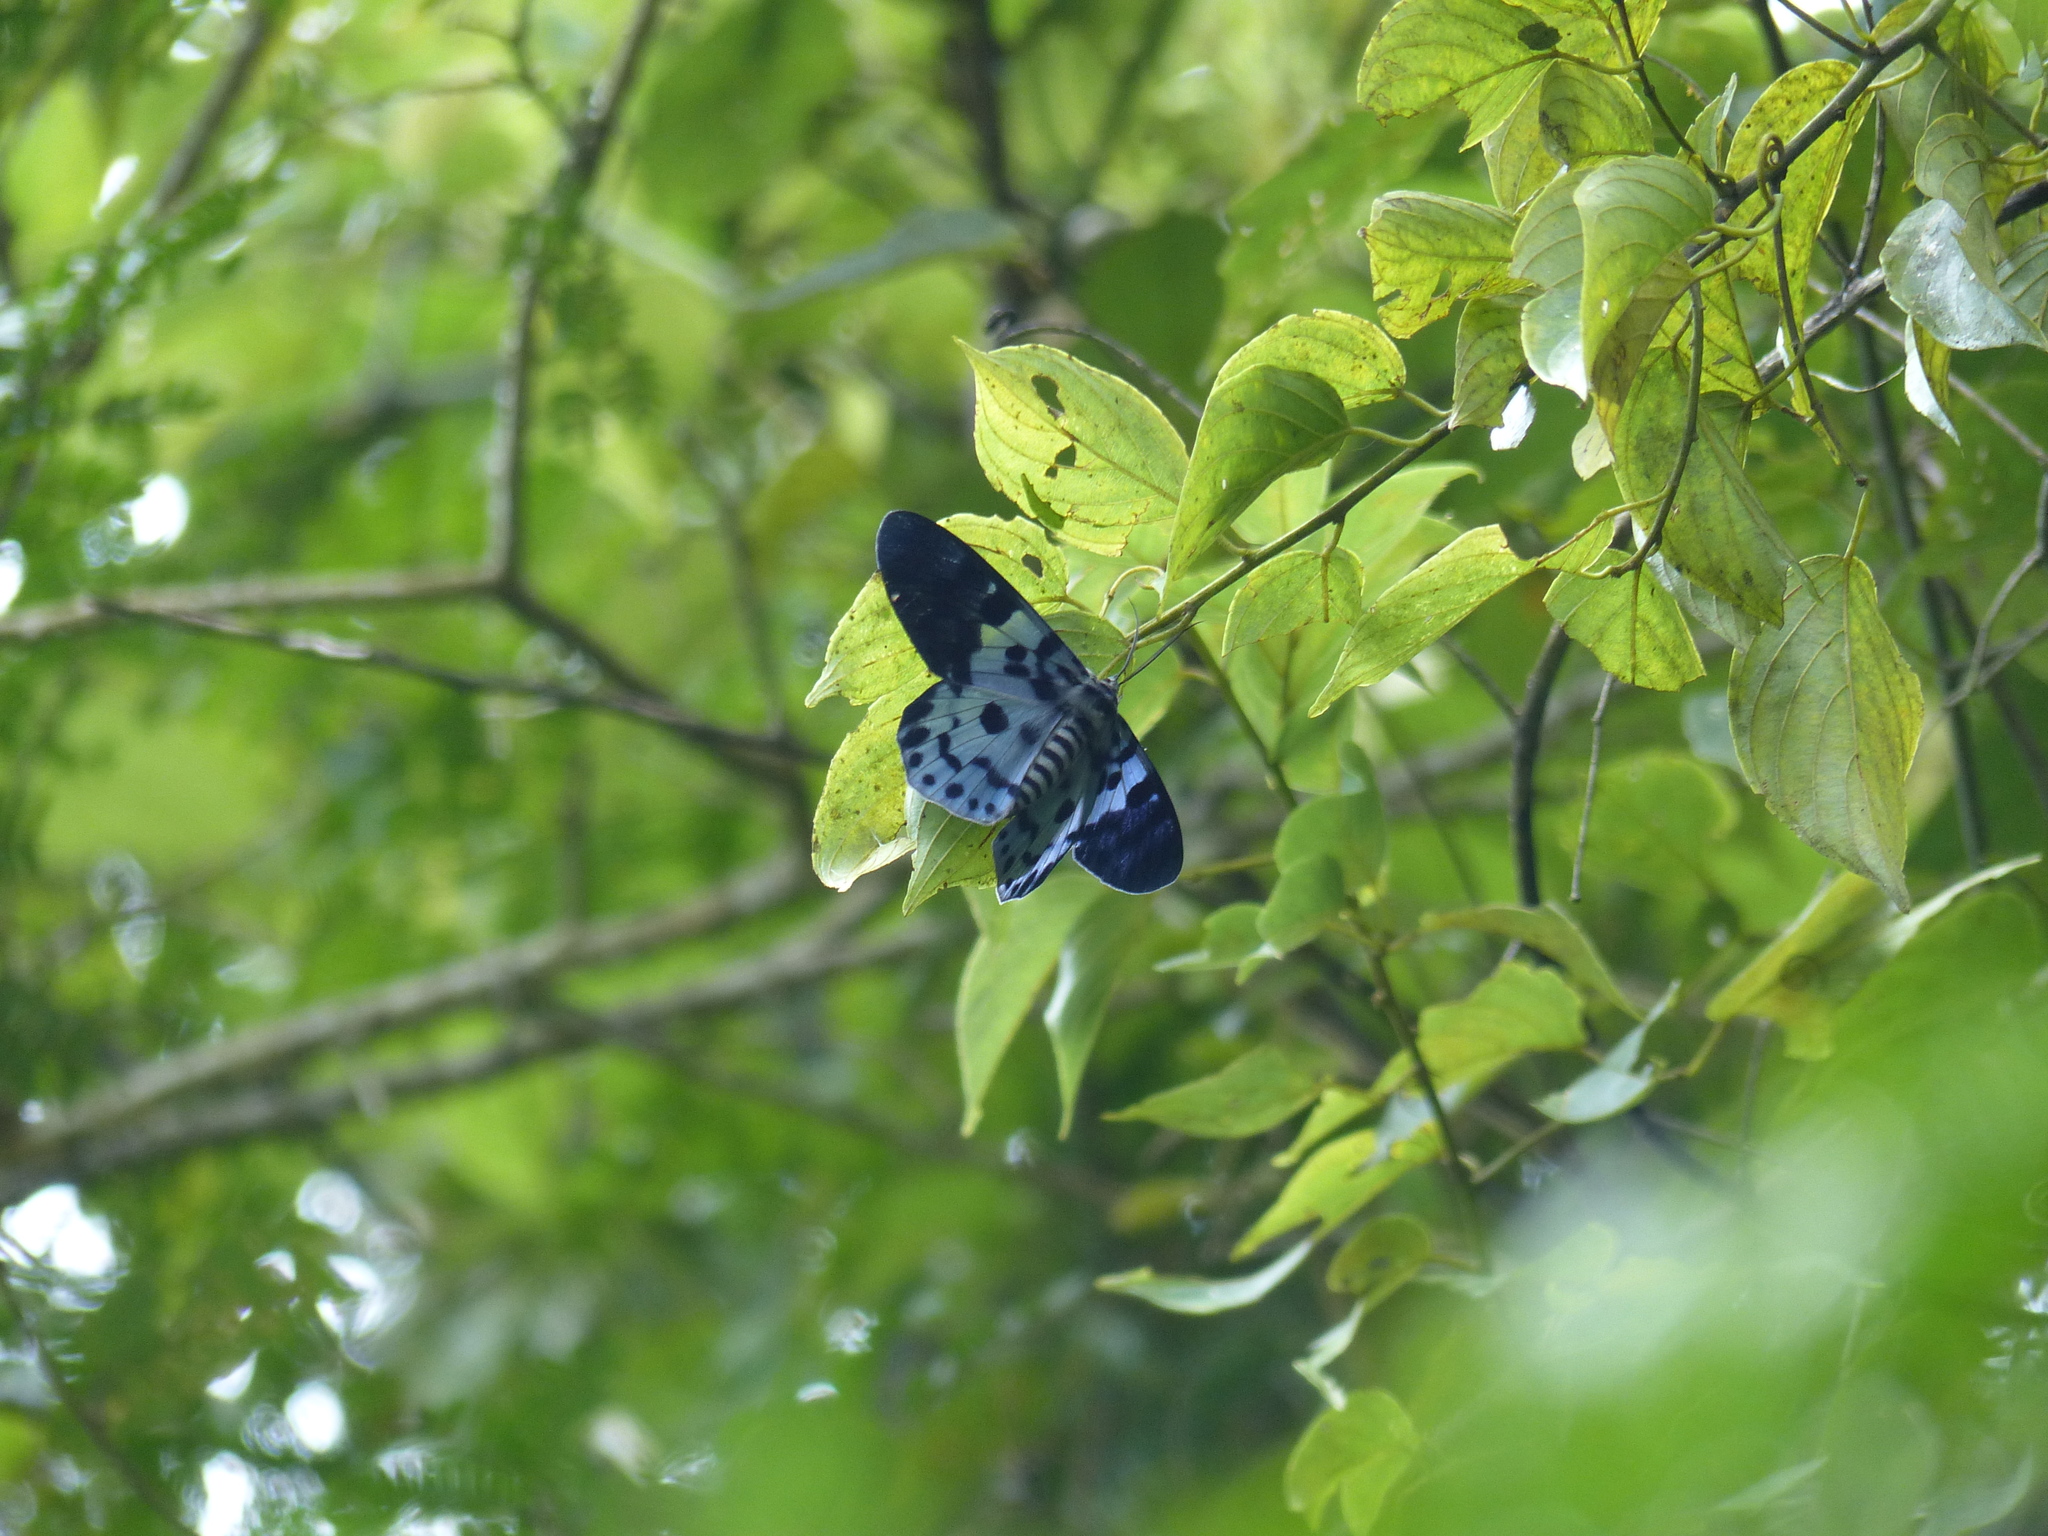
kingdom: Animalia
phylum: Arthropoda
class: Insecta
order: Lepidoptera
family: Geometridae
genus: Dysphania
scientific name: Dysphania percota
